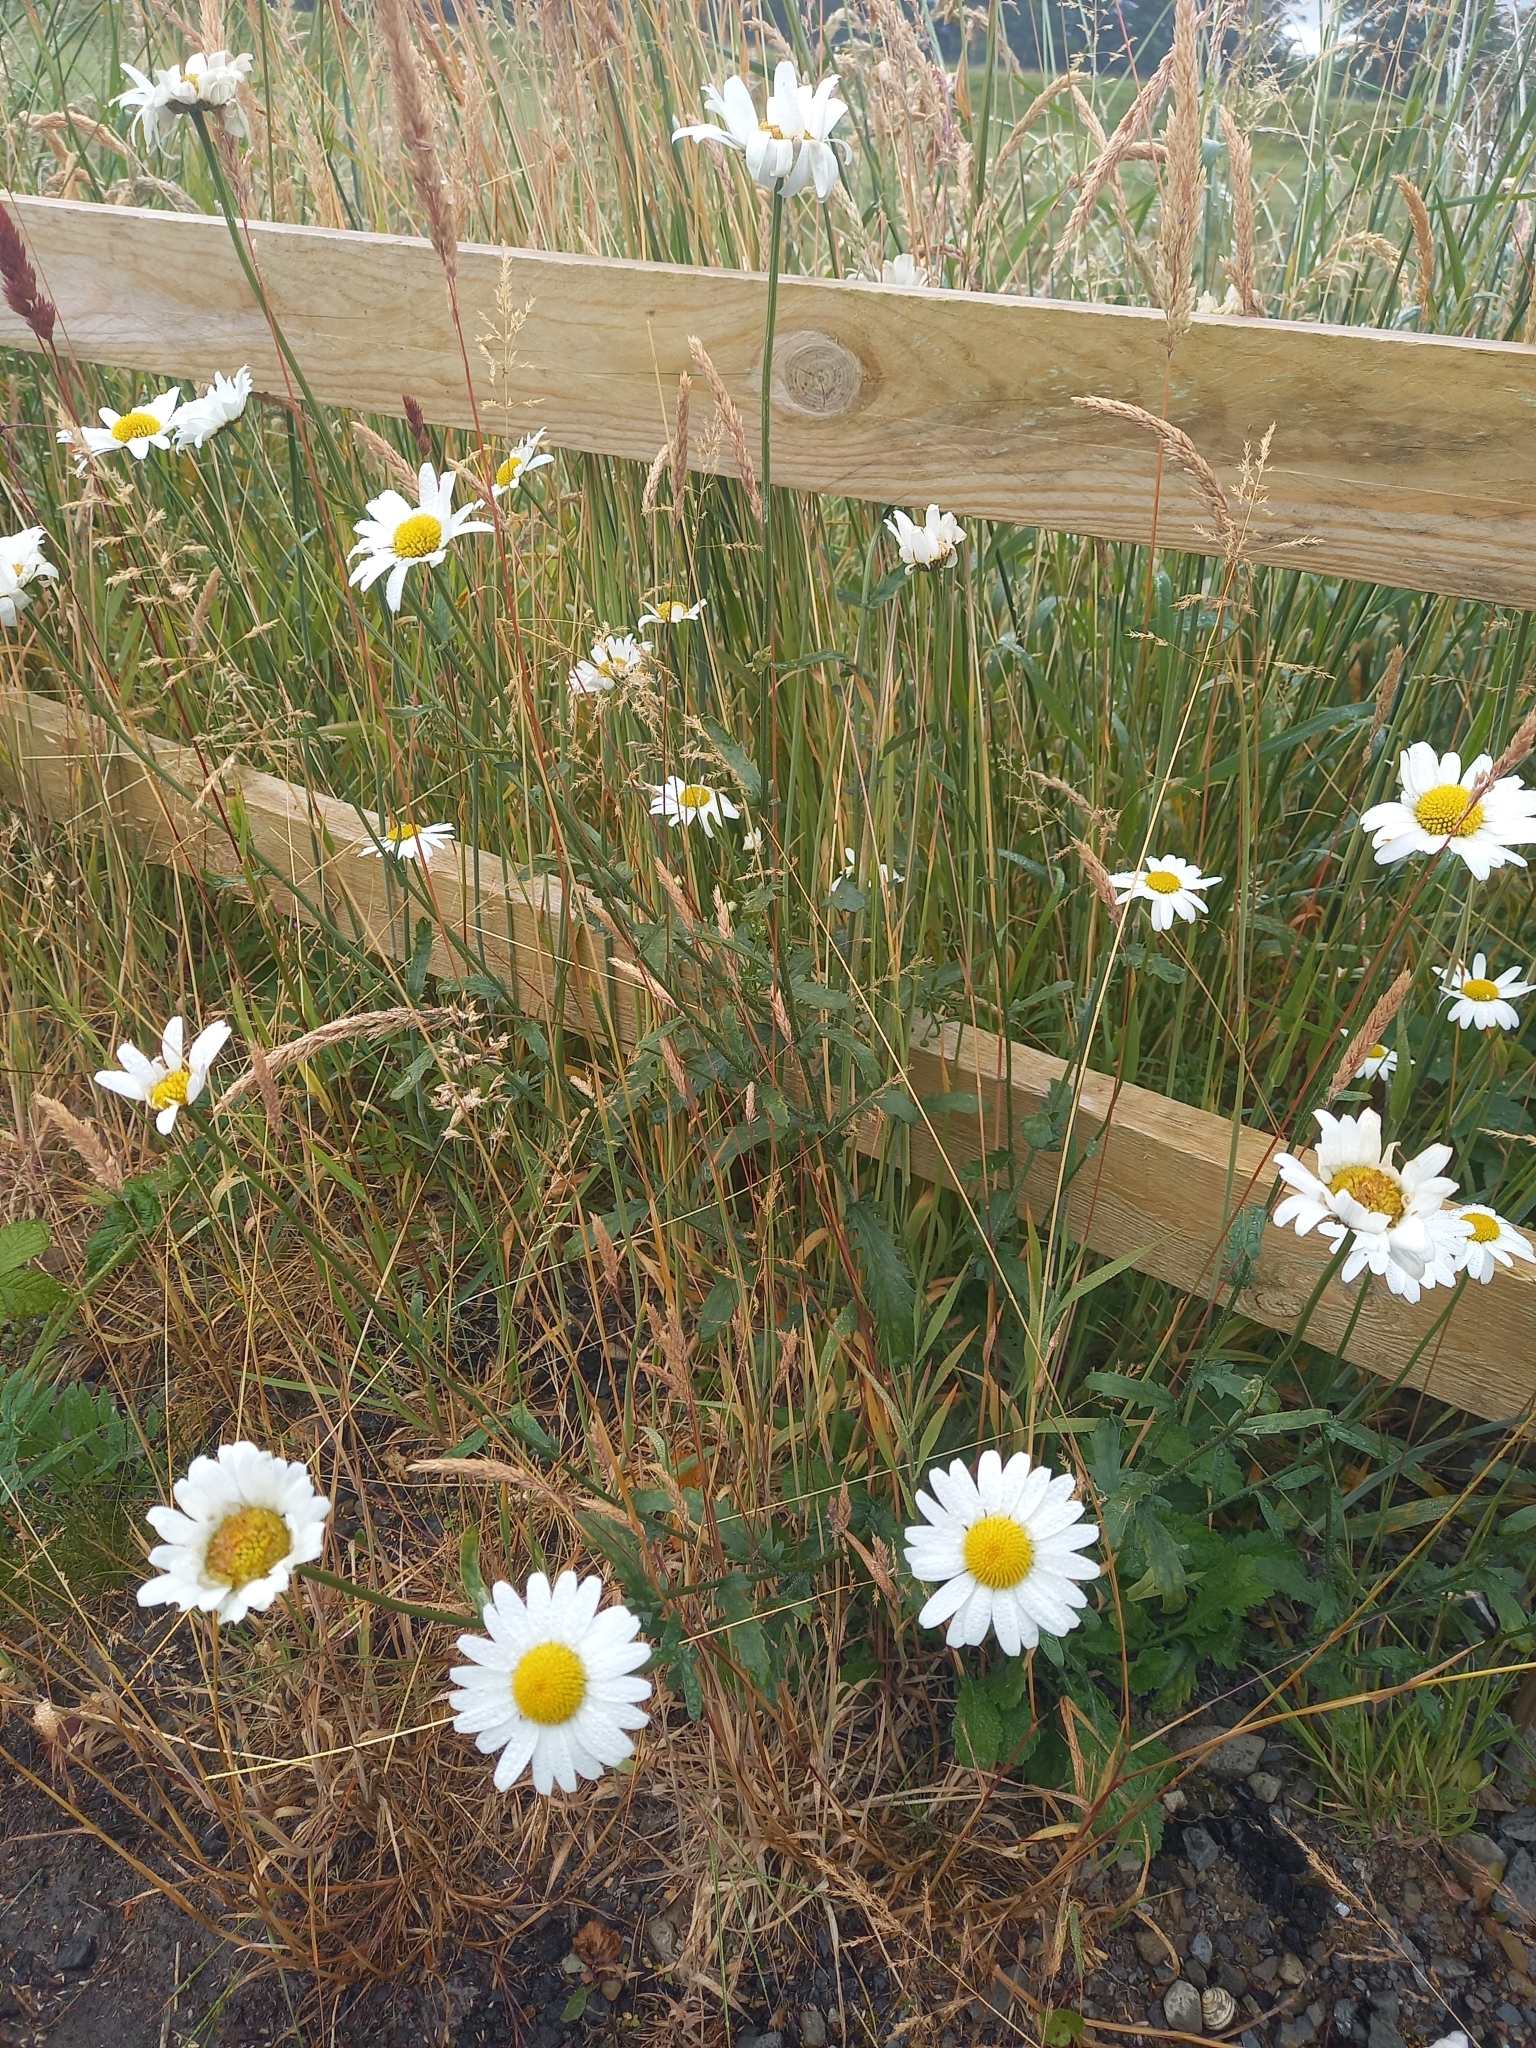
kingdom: Plantae
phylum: Tracheophyta
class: Magnoliopsida
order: Asterales
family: Asteraceae
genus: Leucanthemum
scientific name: Leucanthemum vulgare
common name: Oxeye daisy
